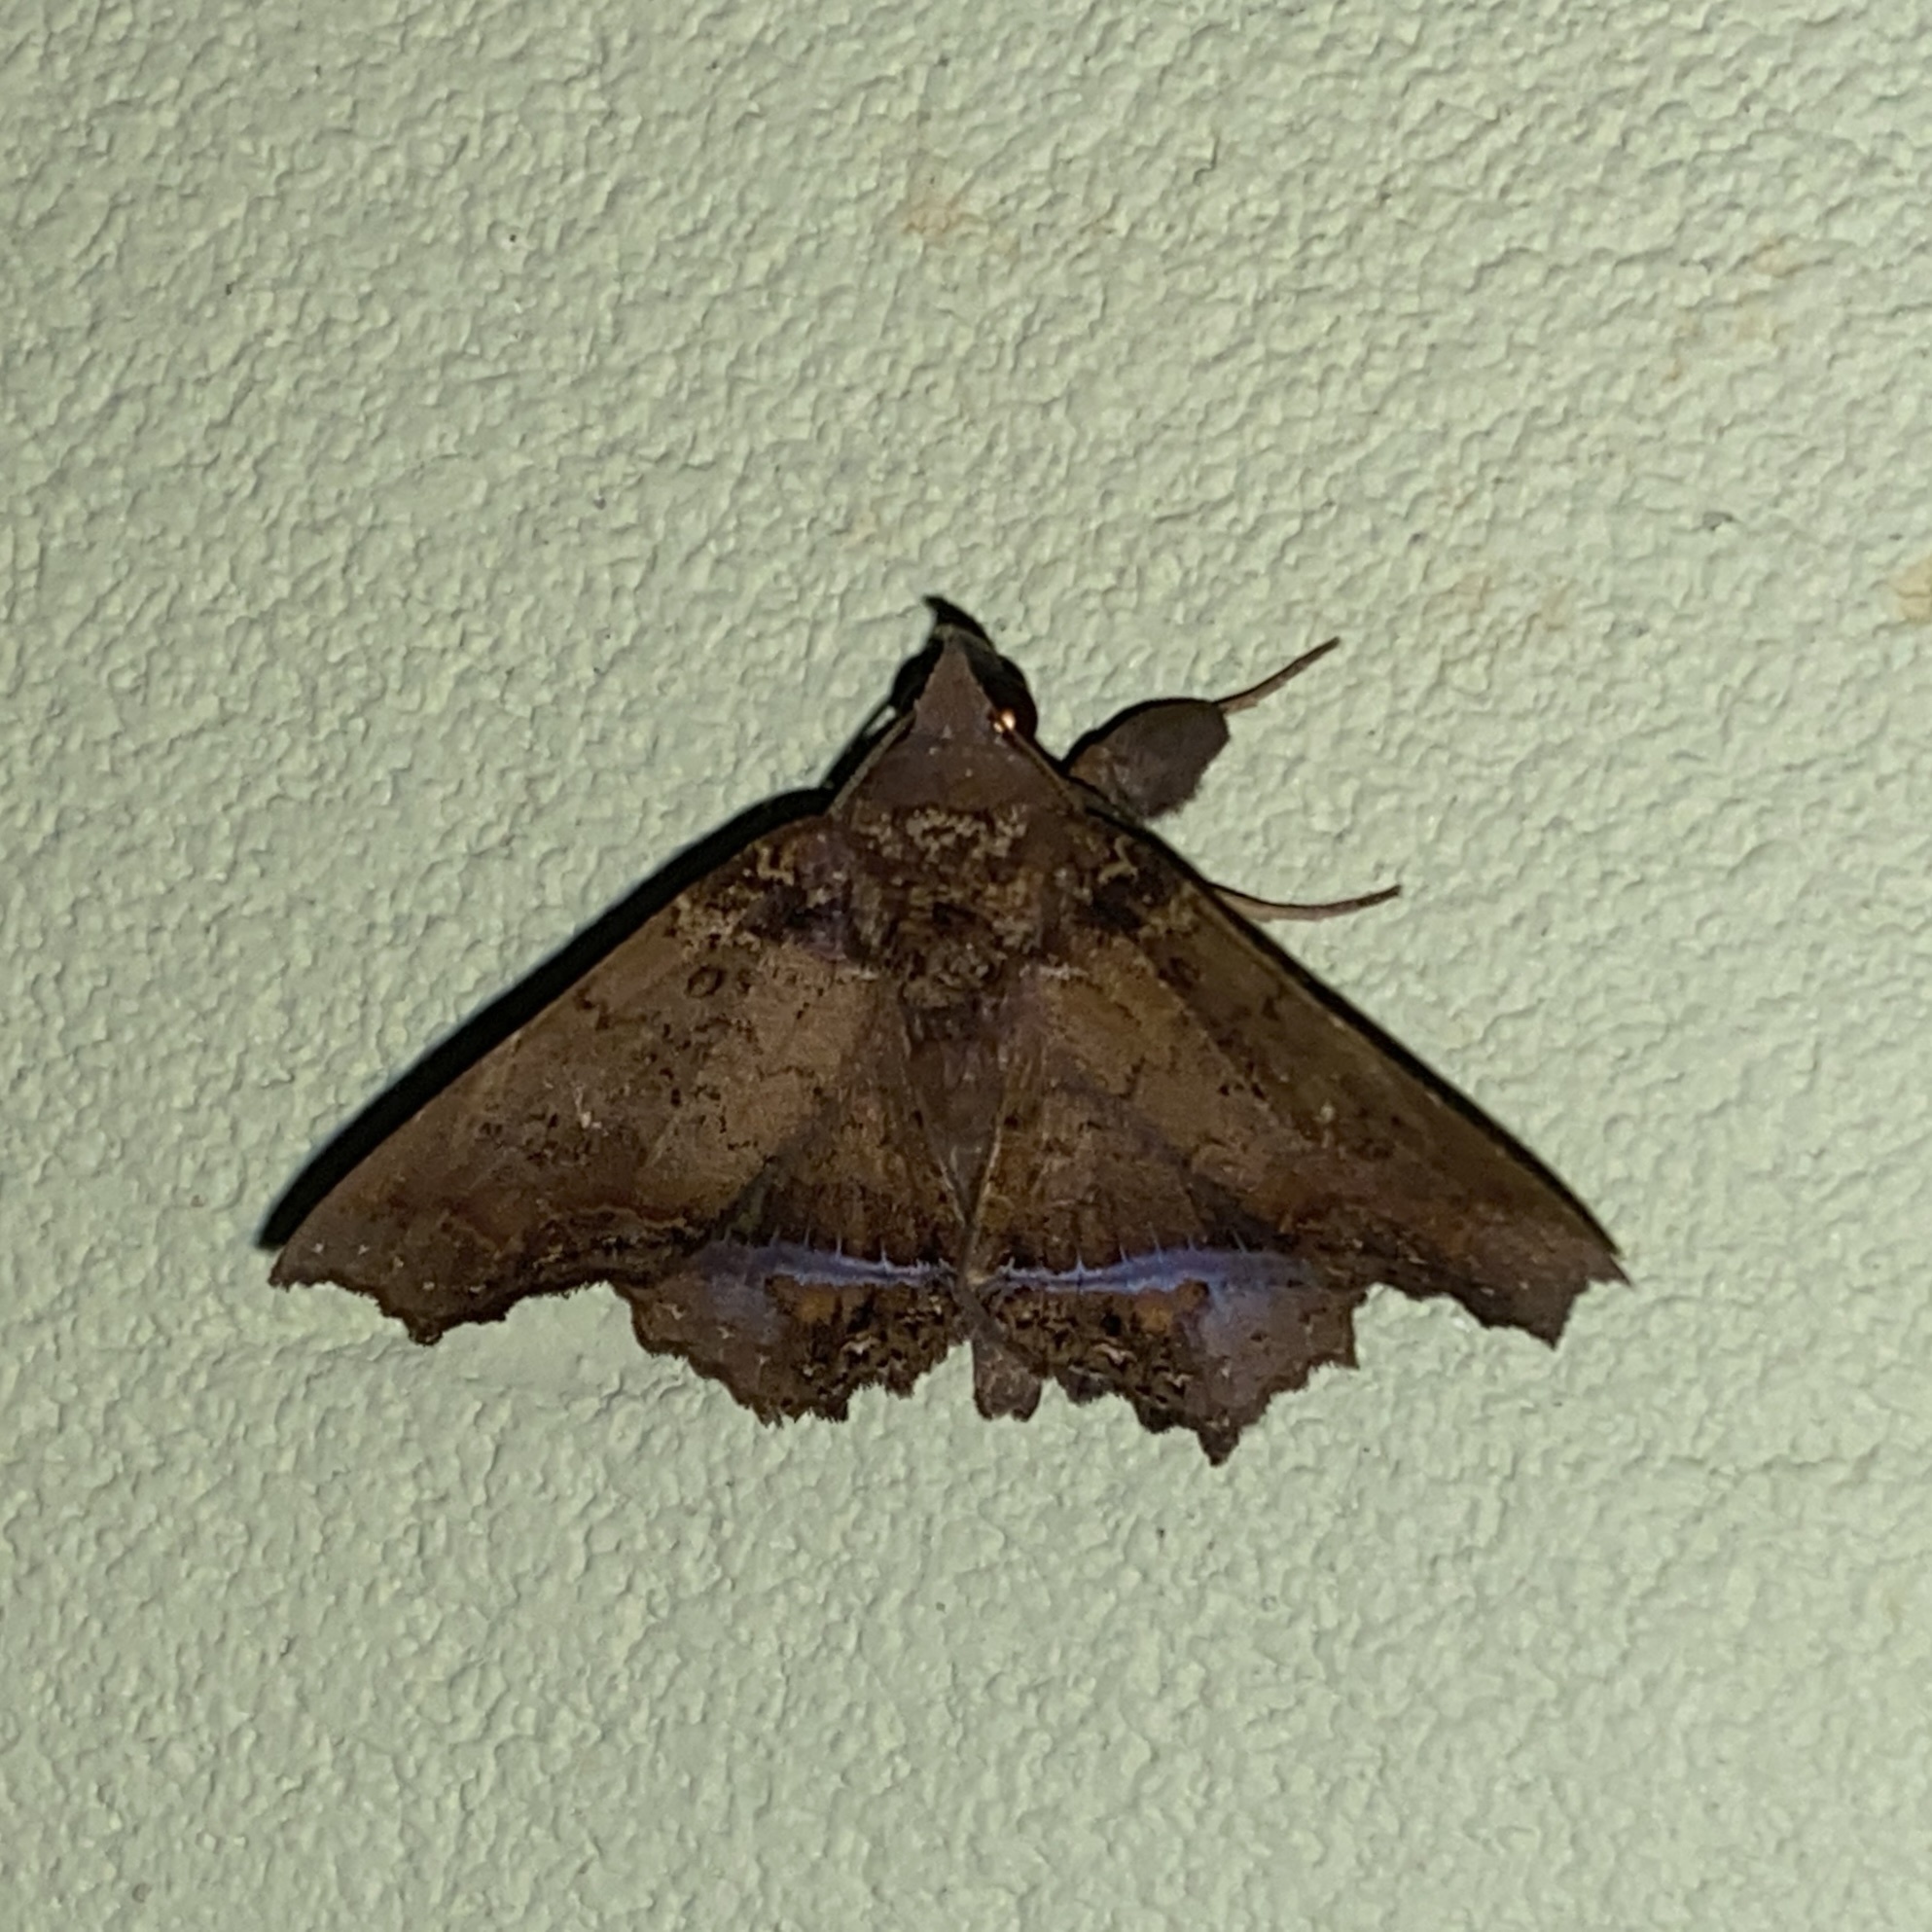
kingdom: Animalia
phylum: Arthropoda
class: Insecta
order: Lepidoptera
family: Erebidae
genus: Polygoniodes
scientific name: Polygoniodes laciniata
